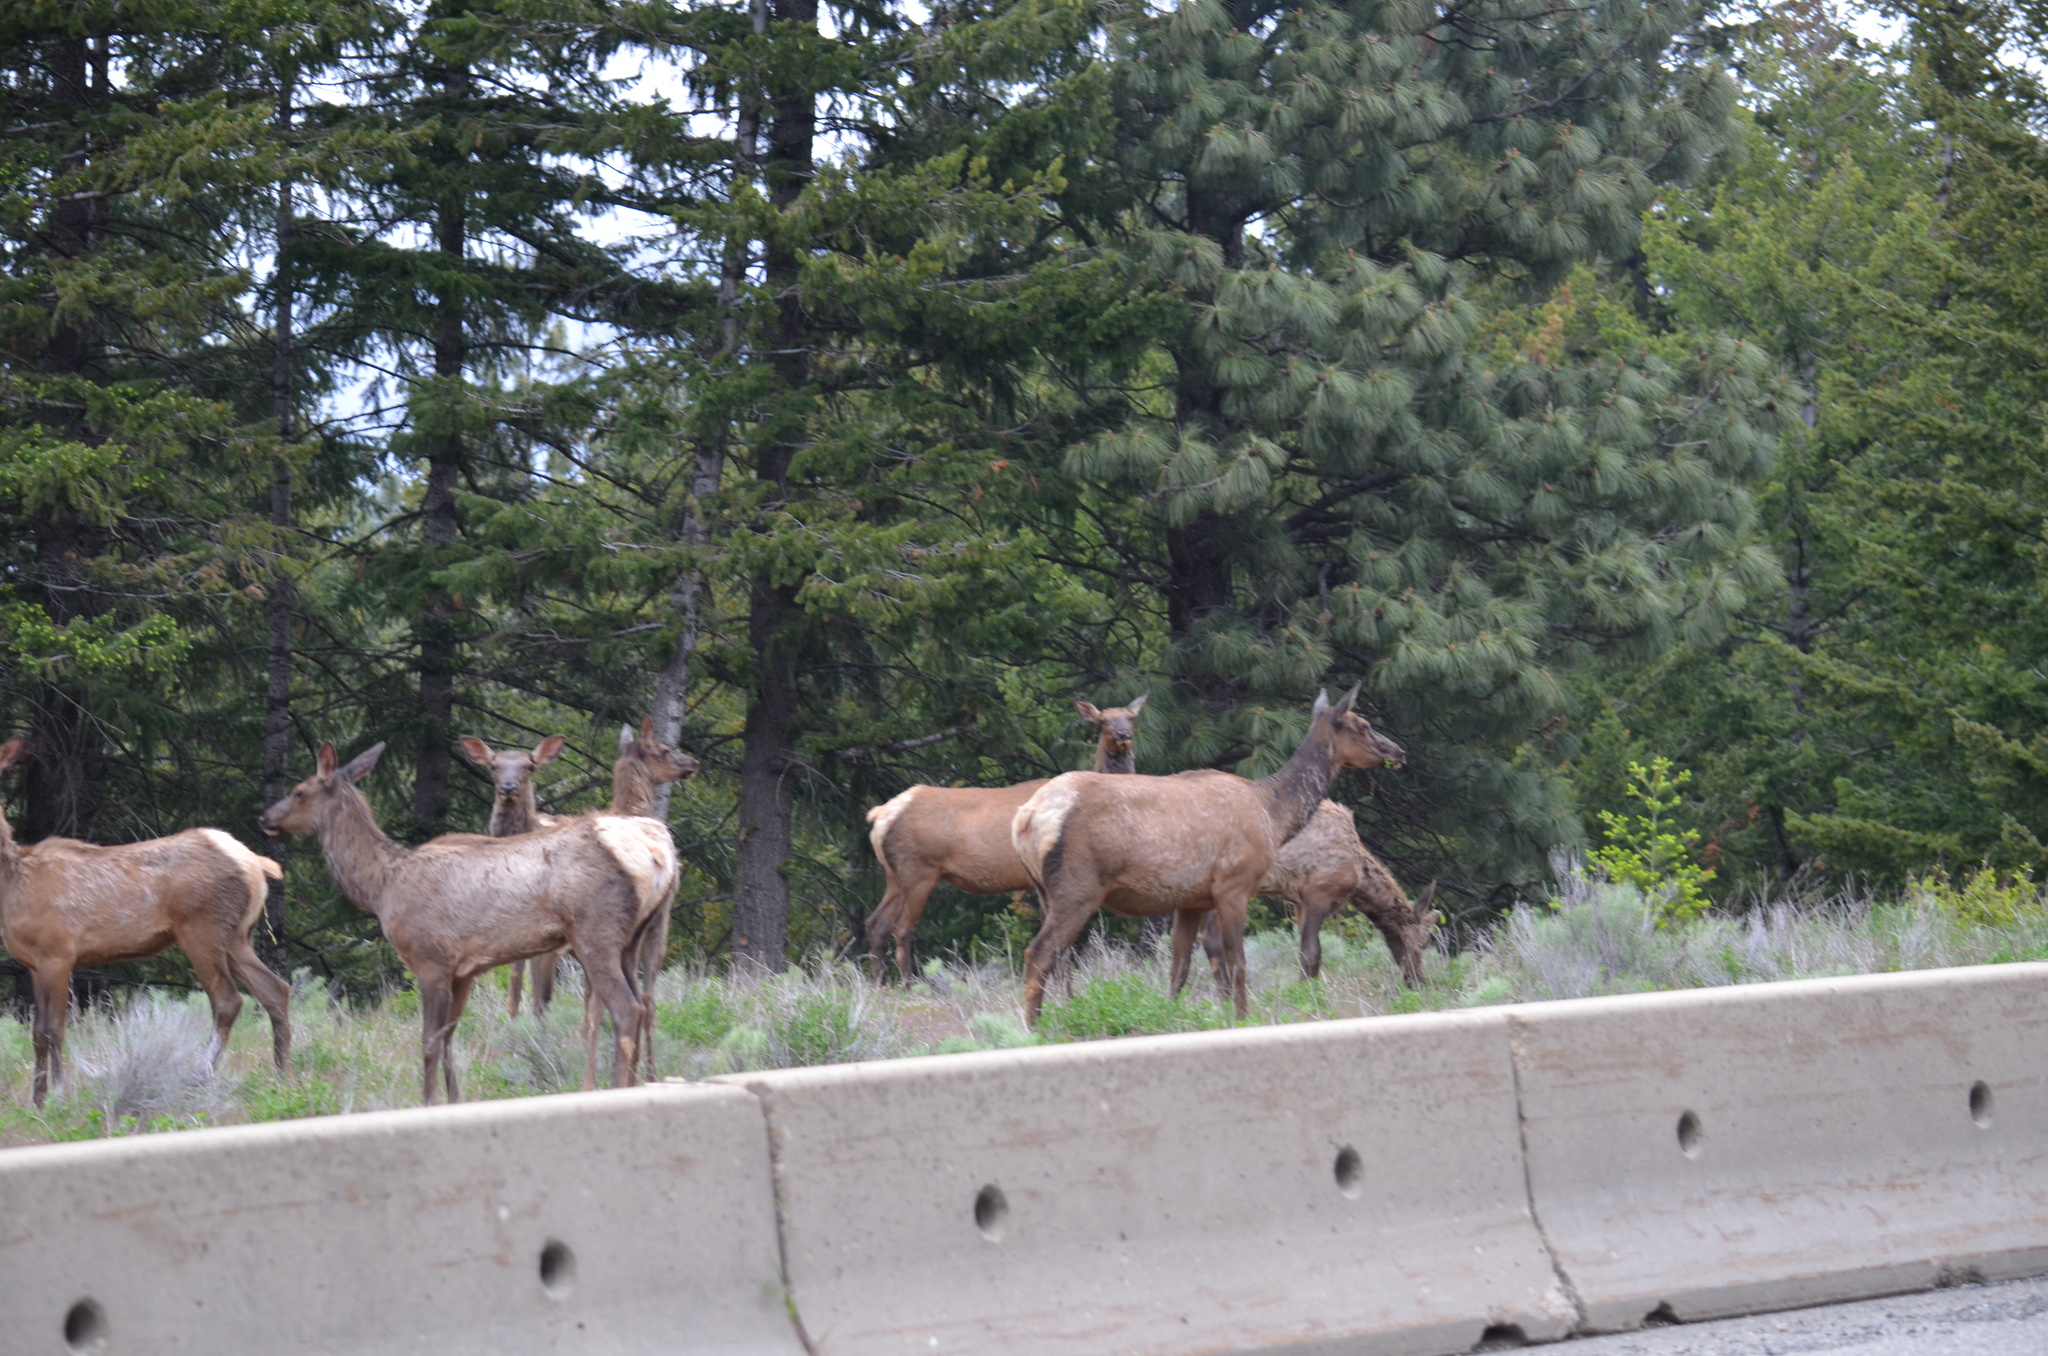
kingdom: Animalia
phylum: Chordata
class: Mammalia
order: Artiodactyla
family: Cervidae
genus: Cervus
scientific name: Cervus elaphus
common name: Red deer
